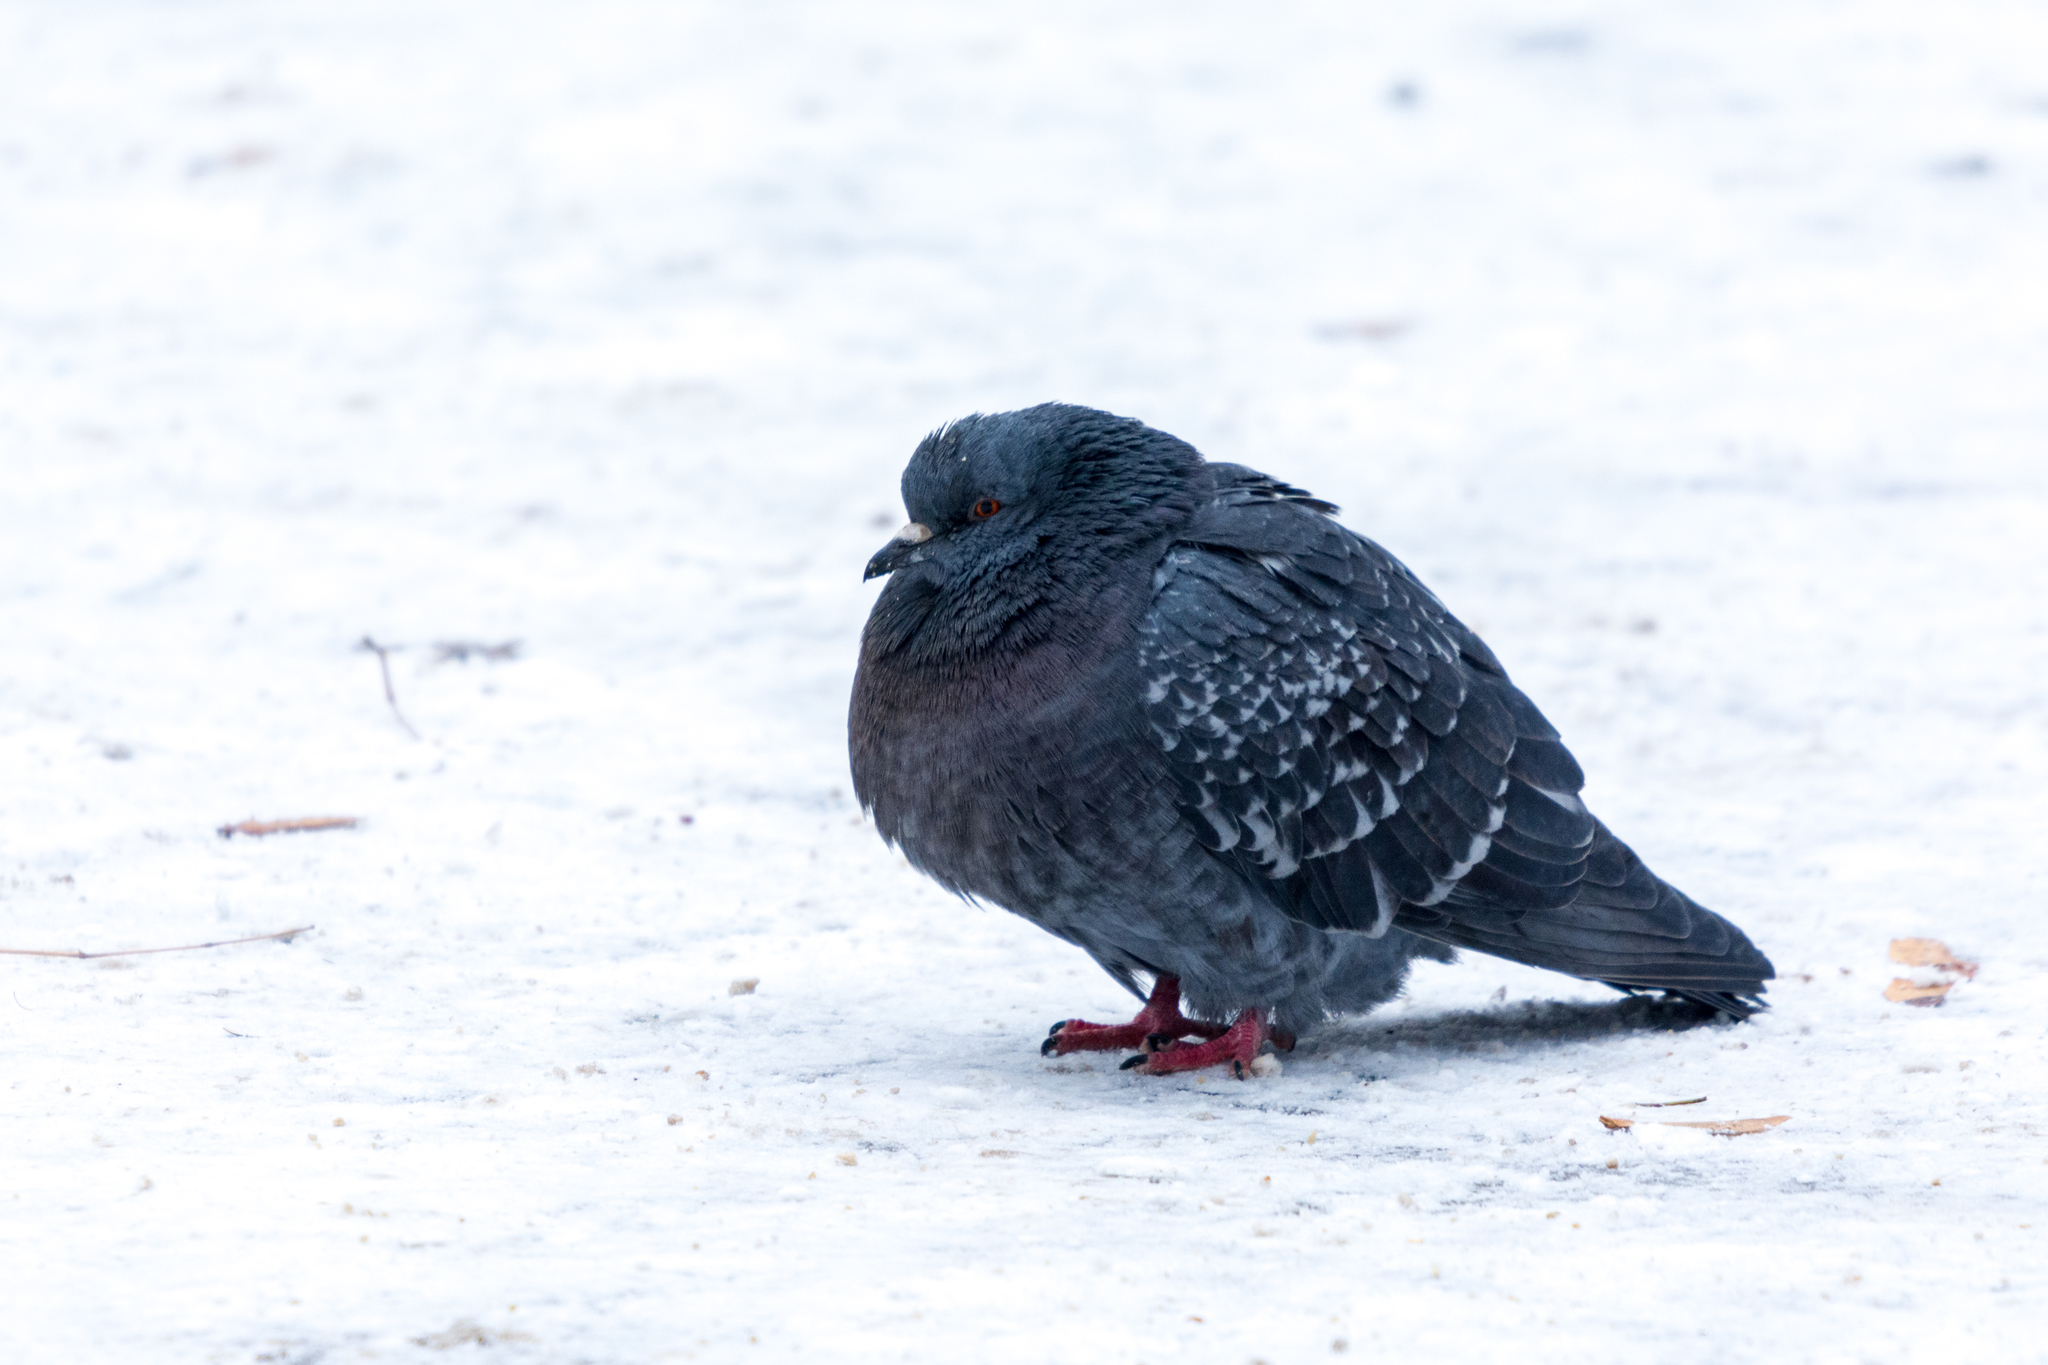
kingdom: Animalia
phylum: Chordata
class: Aves
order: Columbiformes
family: Columbidae
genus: Columba
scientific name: Columba livia
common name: Rock pigeon
